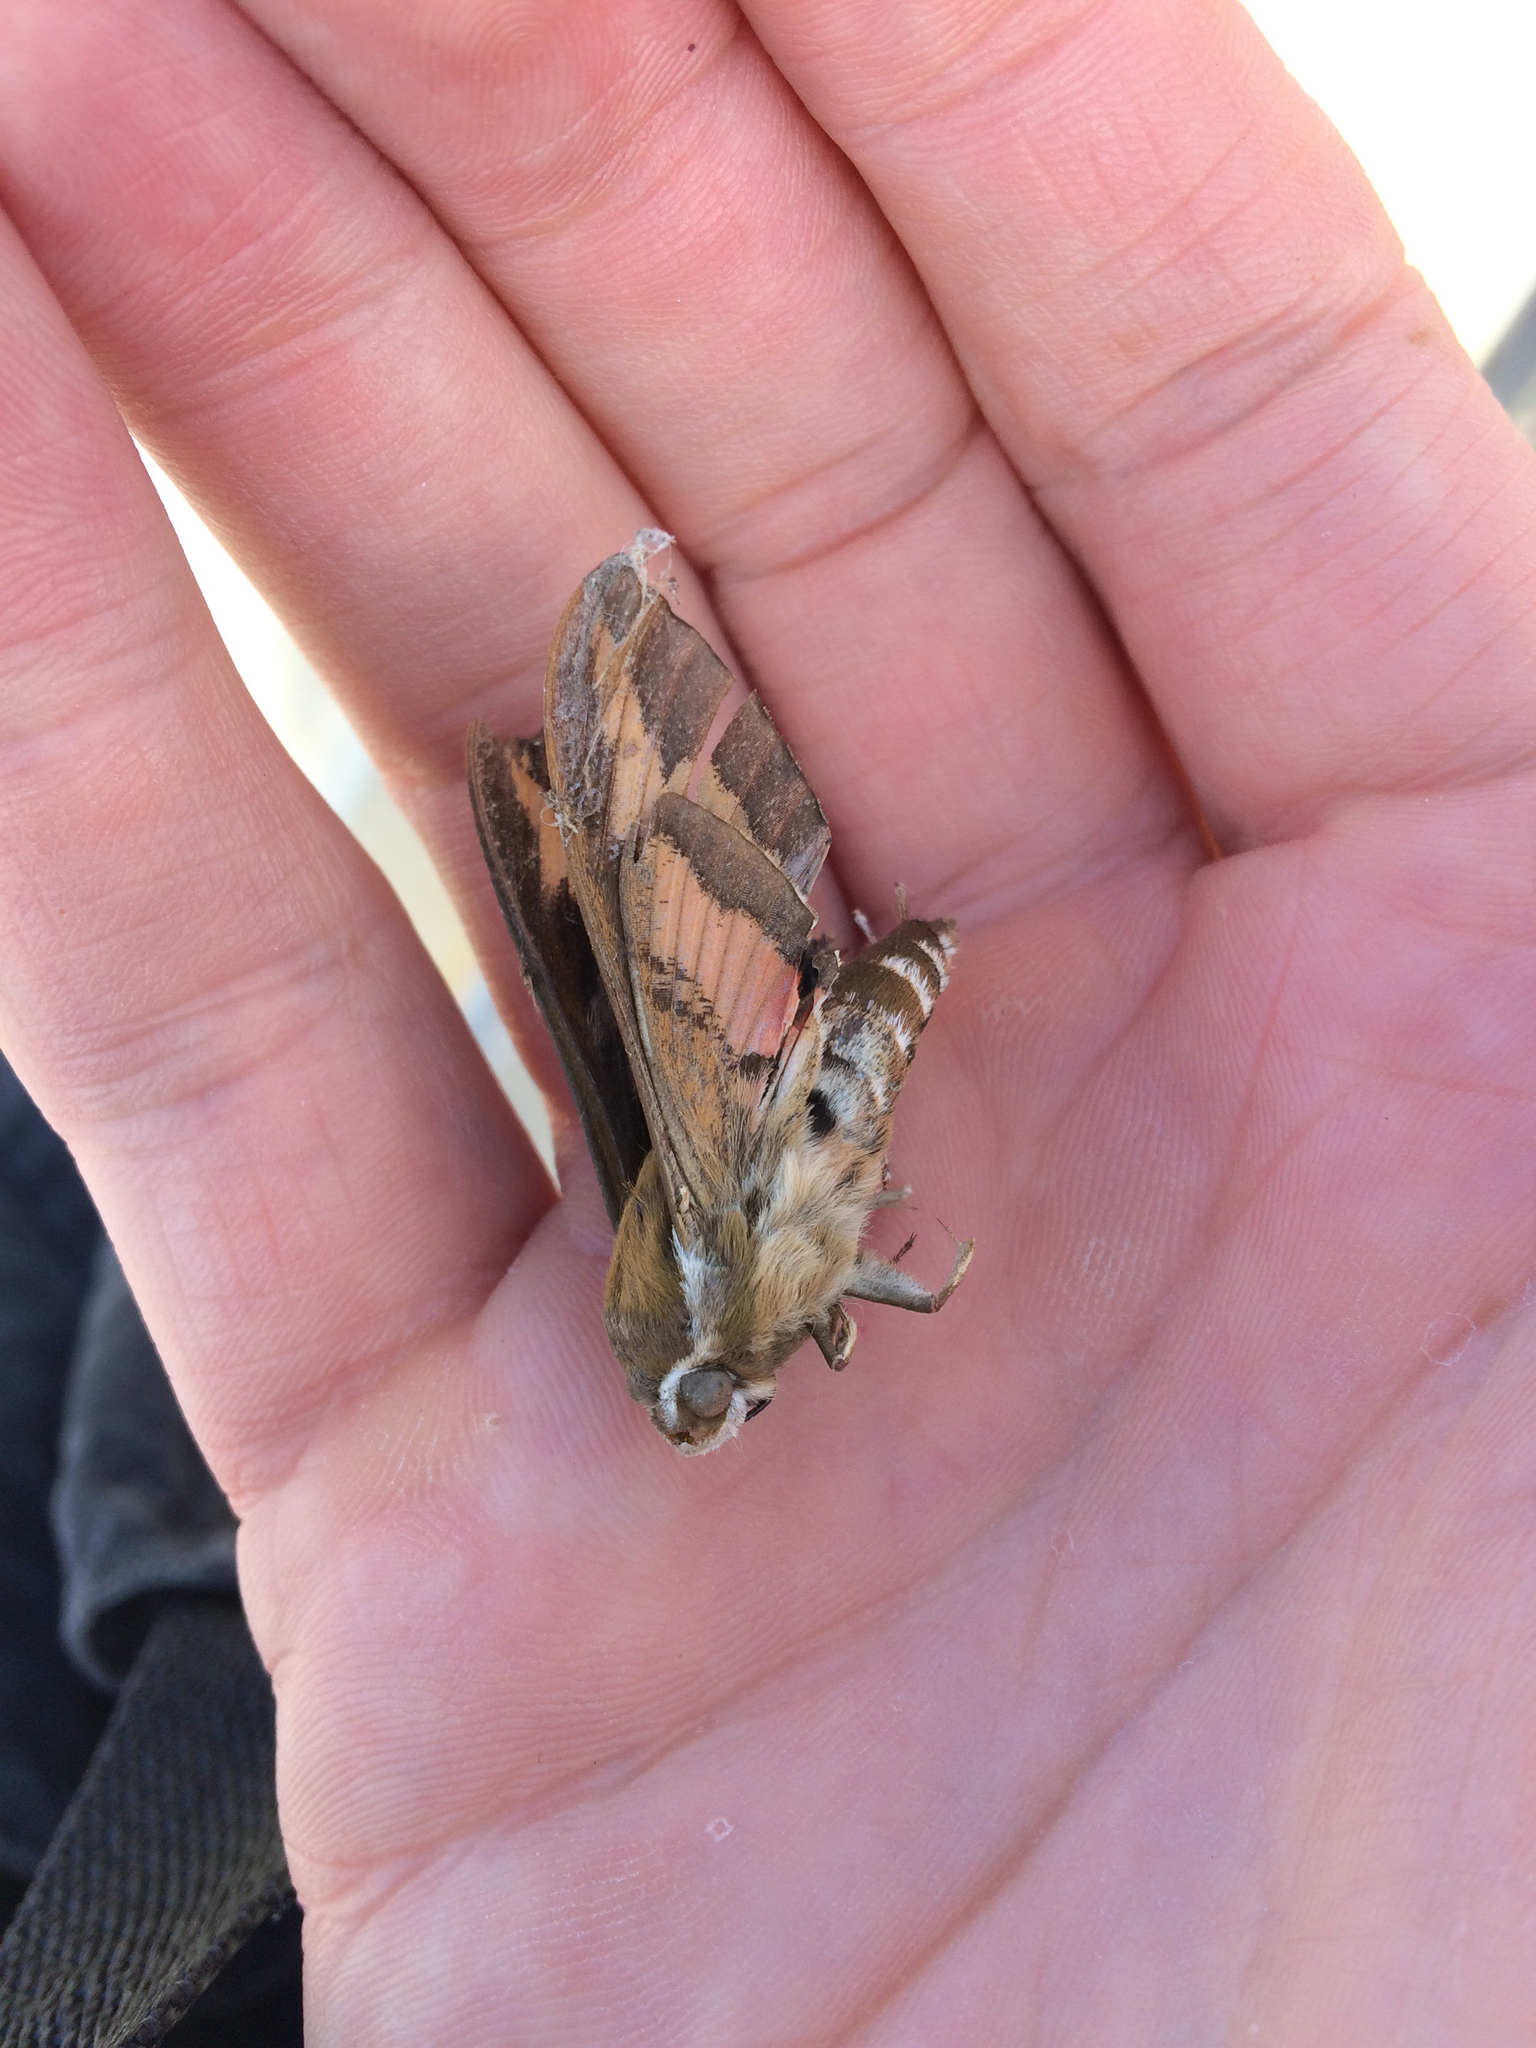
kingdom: Animalia
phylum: Arthropoda
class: Insecta
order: Lepidoptera
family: Sphingidae
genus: Hyles
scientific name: Hyles gallii
